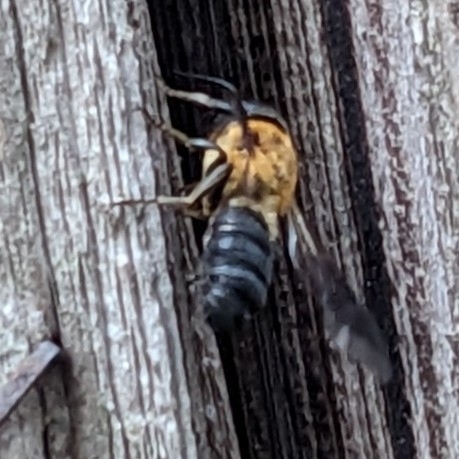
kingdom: Animalia
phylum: Arthropoda
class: Insecta
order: Hymenoptera
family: Megachilidae
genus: Megachile
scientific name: Megachile sculpturalis
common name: Sculptured resin bee
